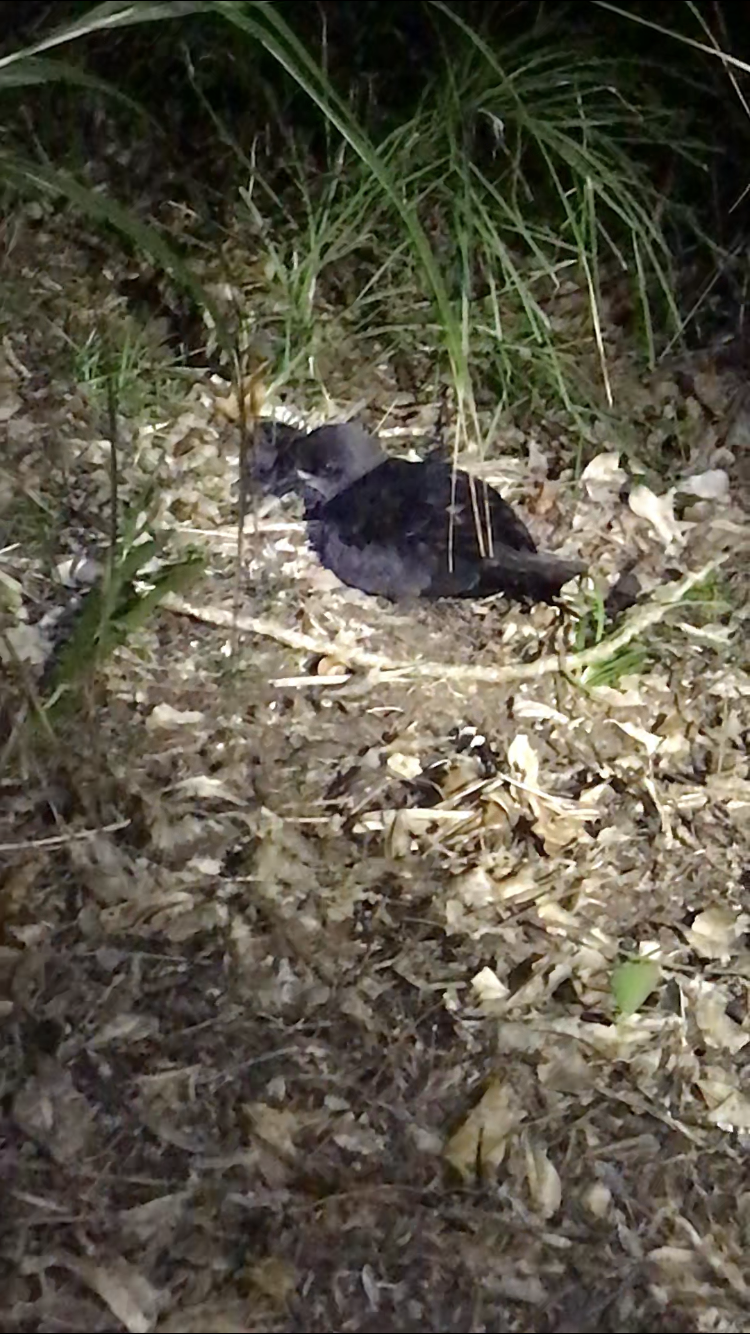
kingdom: Animalia
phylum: Chordata
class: Aves
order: Procellariiformes
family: Procellariidae
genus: Pterodroma
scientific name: Pterodroma macroptera
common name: Great-winged petrel
